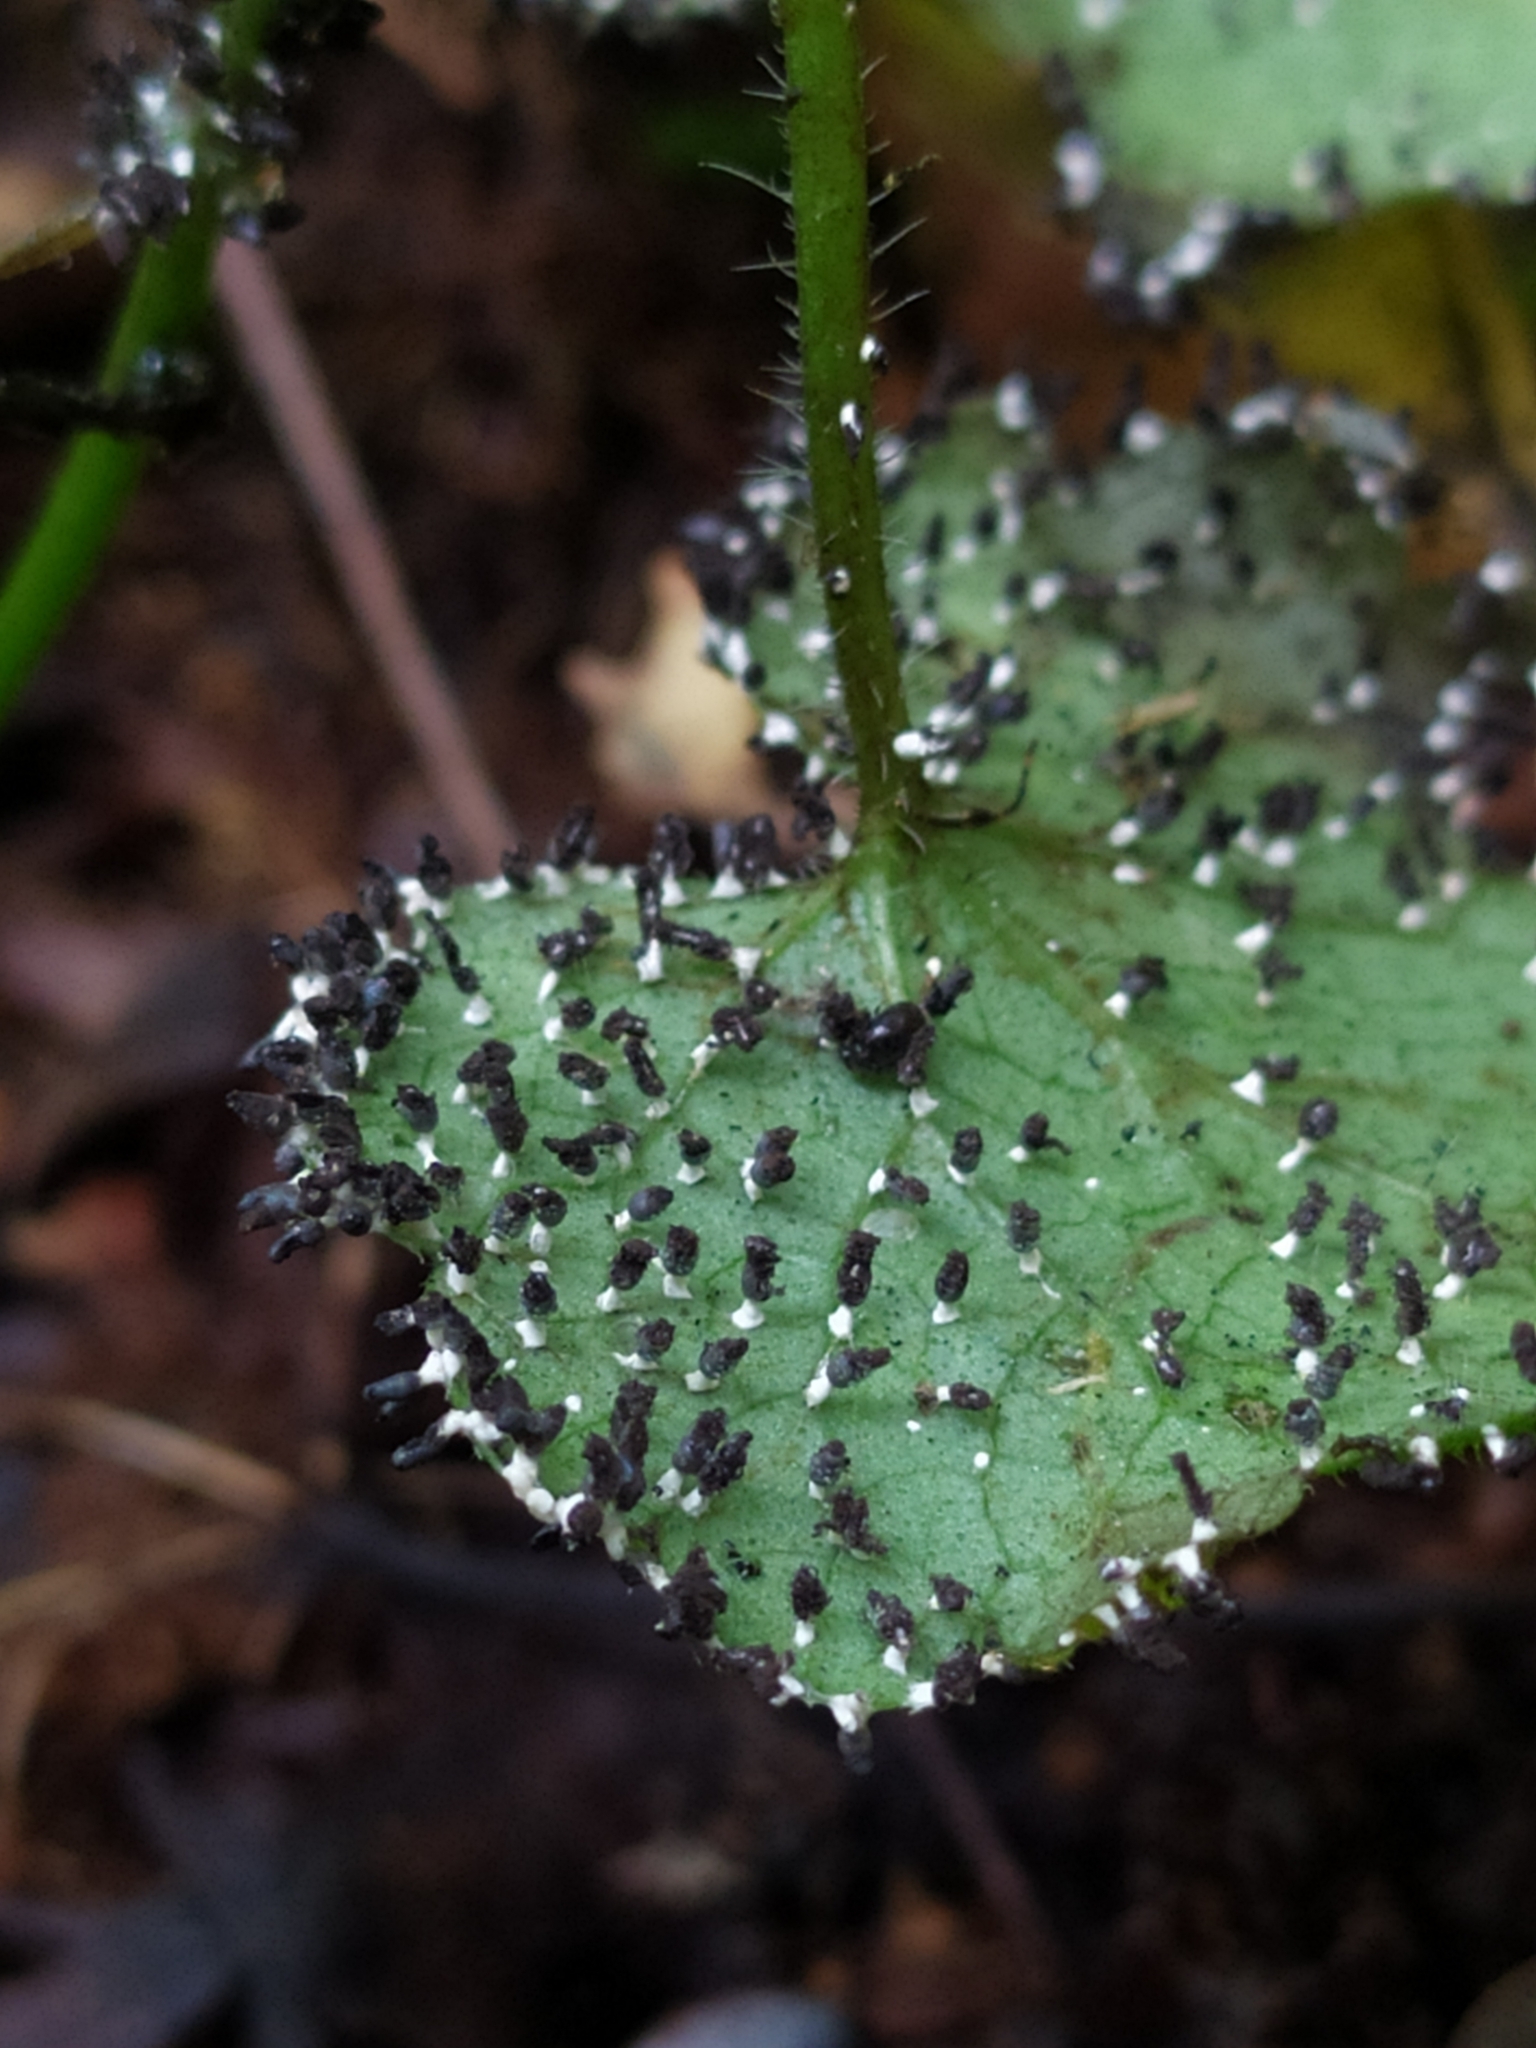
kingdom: Protozoa
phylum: Mycetozoa
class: Myxomycetes
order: Physarales
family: Didymiaceae
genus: Diachea
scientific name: Diachea leucopodia
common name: White-footed slime
